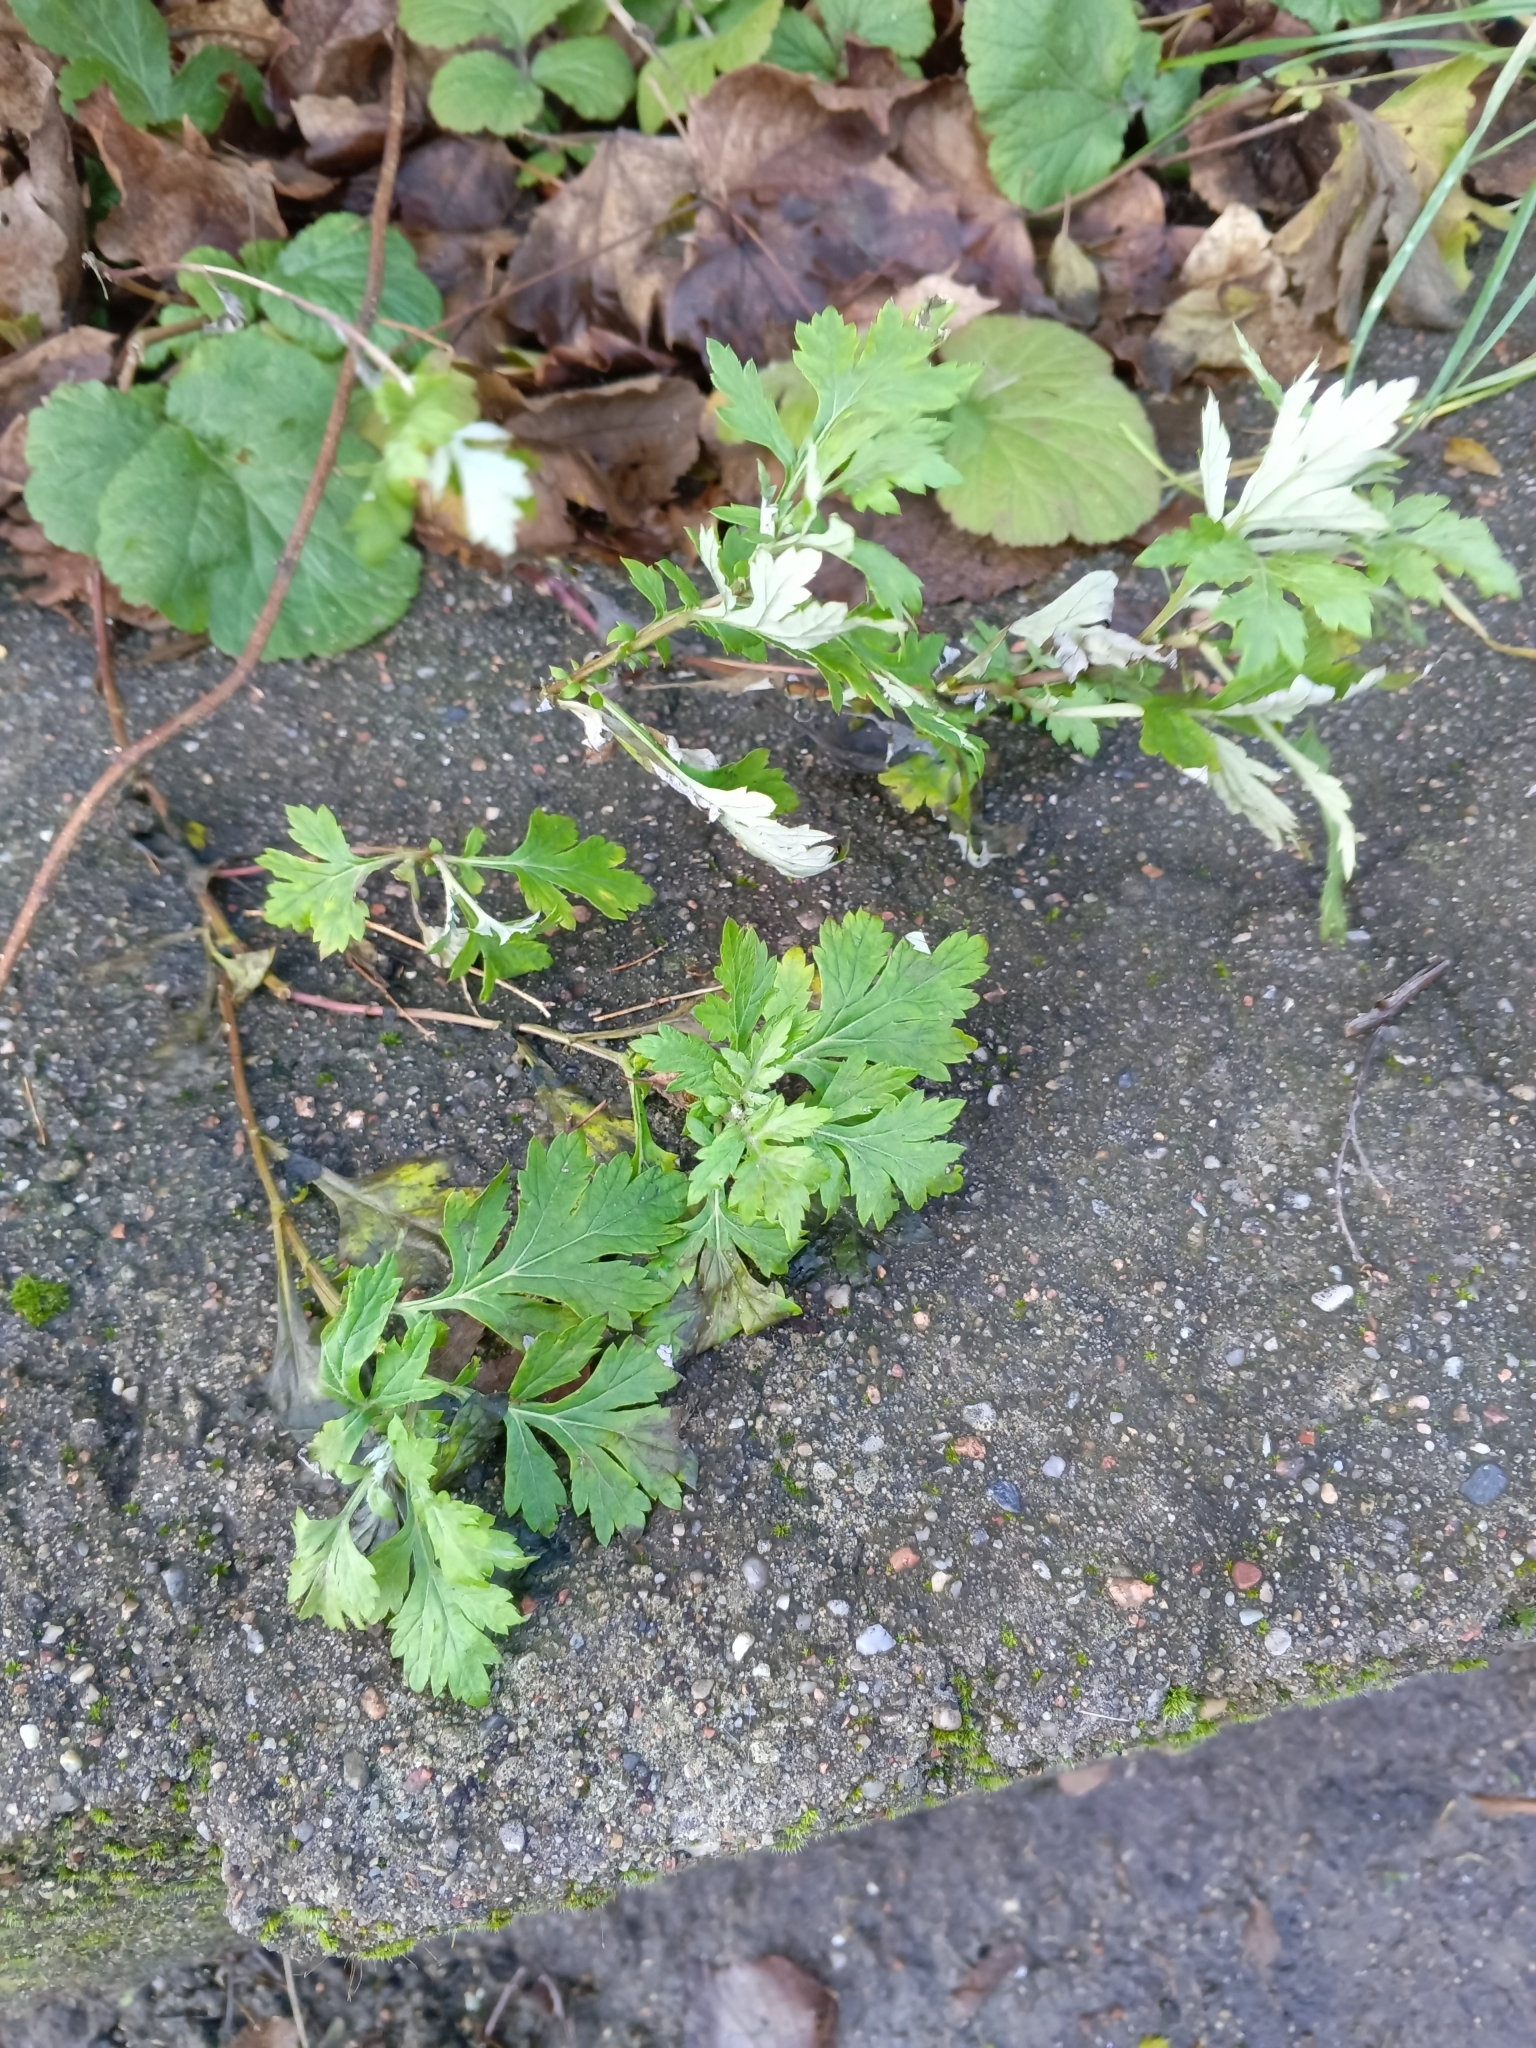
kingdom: Plantae
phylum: Tracheophyta
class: Magnoliopsida
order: Asterales
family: Asteraceae
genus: Artemisia
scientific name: Artemisia vulgaris
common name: Mugwort
